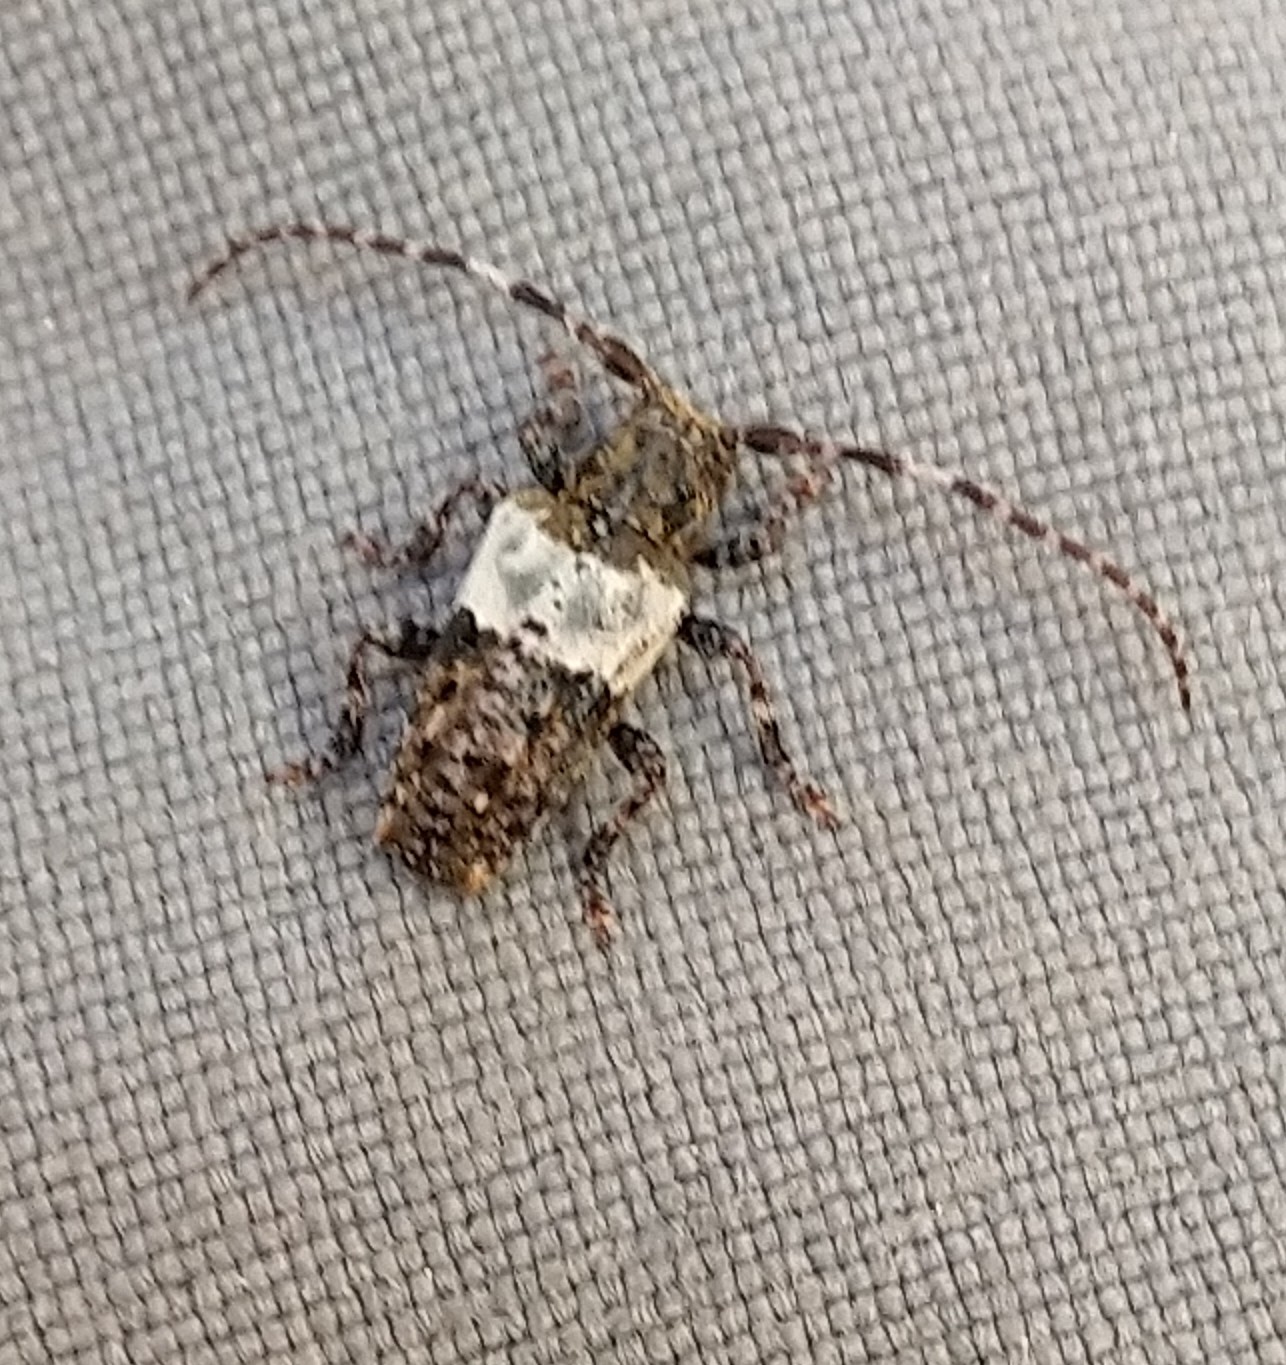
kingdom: Animalia
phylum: Arthropoda
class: Insecta
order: Coleoptera
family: Cerambycidae
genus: Pogonocherus
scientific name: Pogonocherus hispidulus
